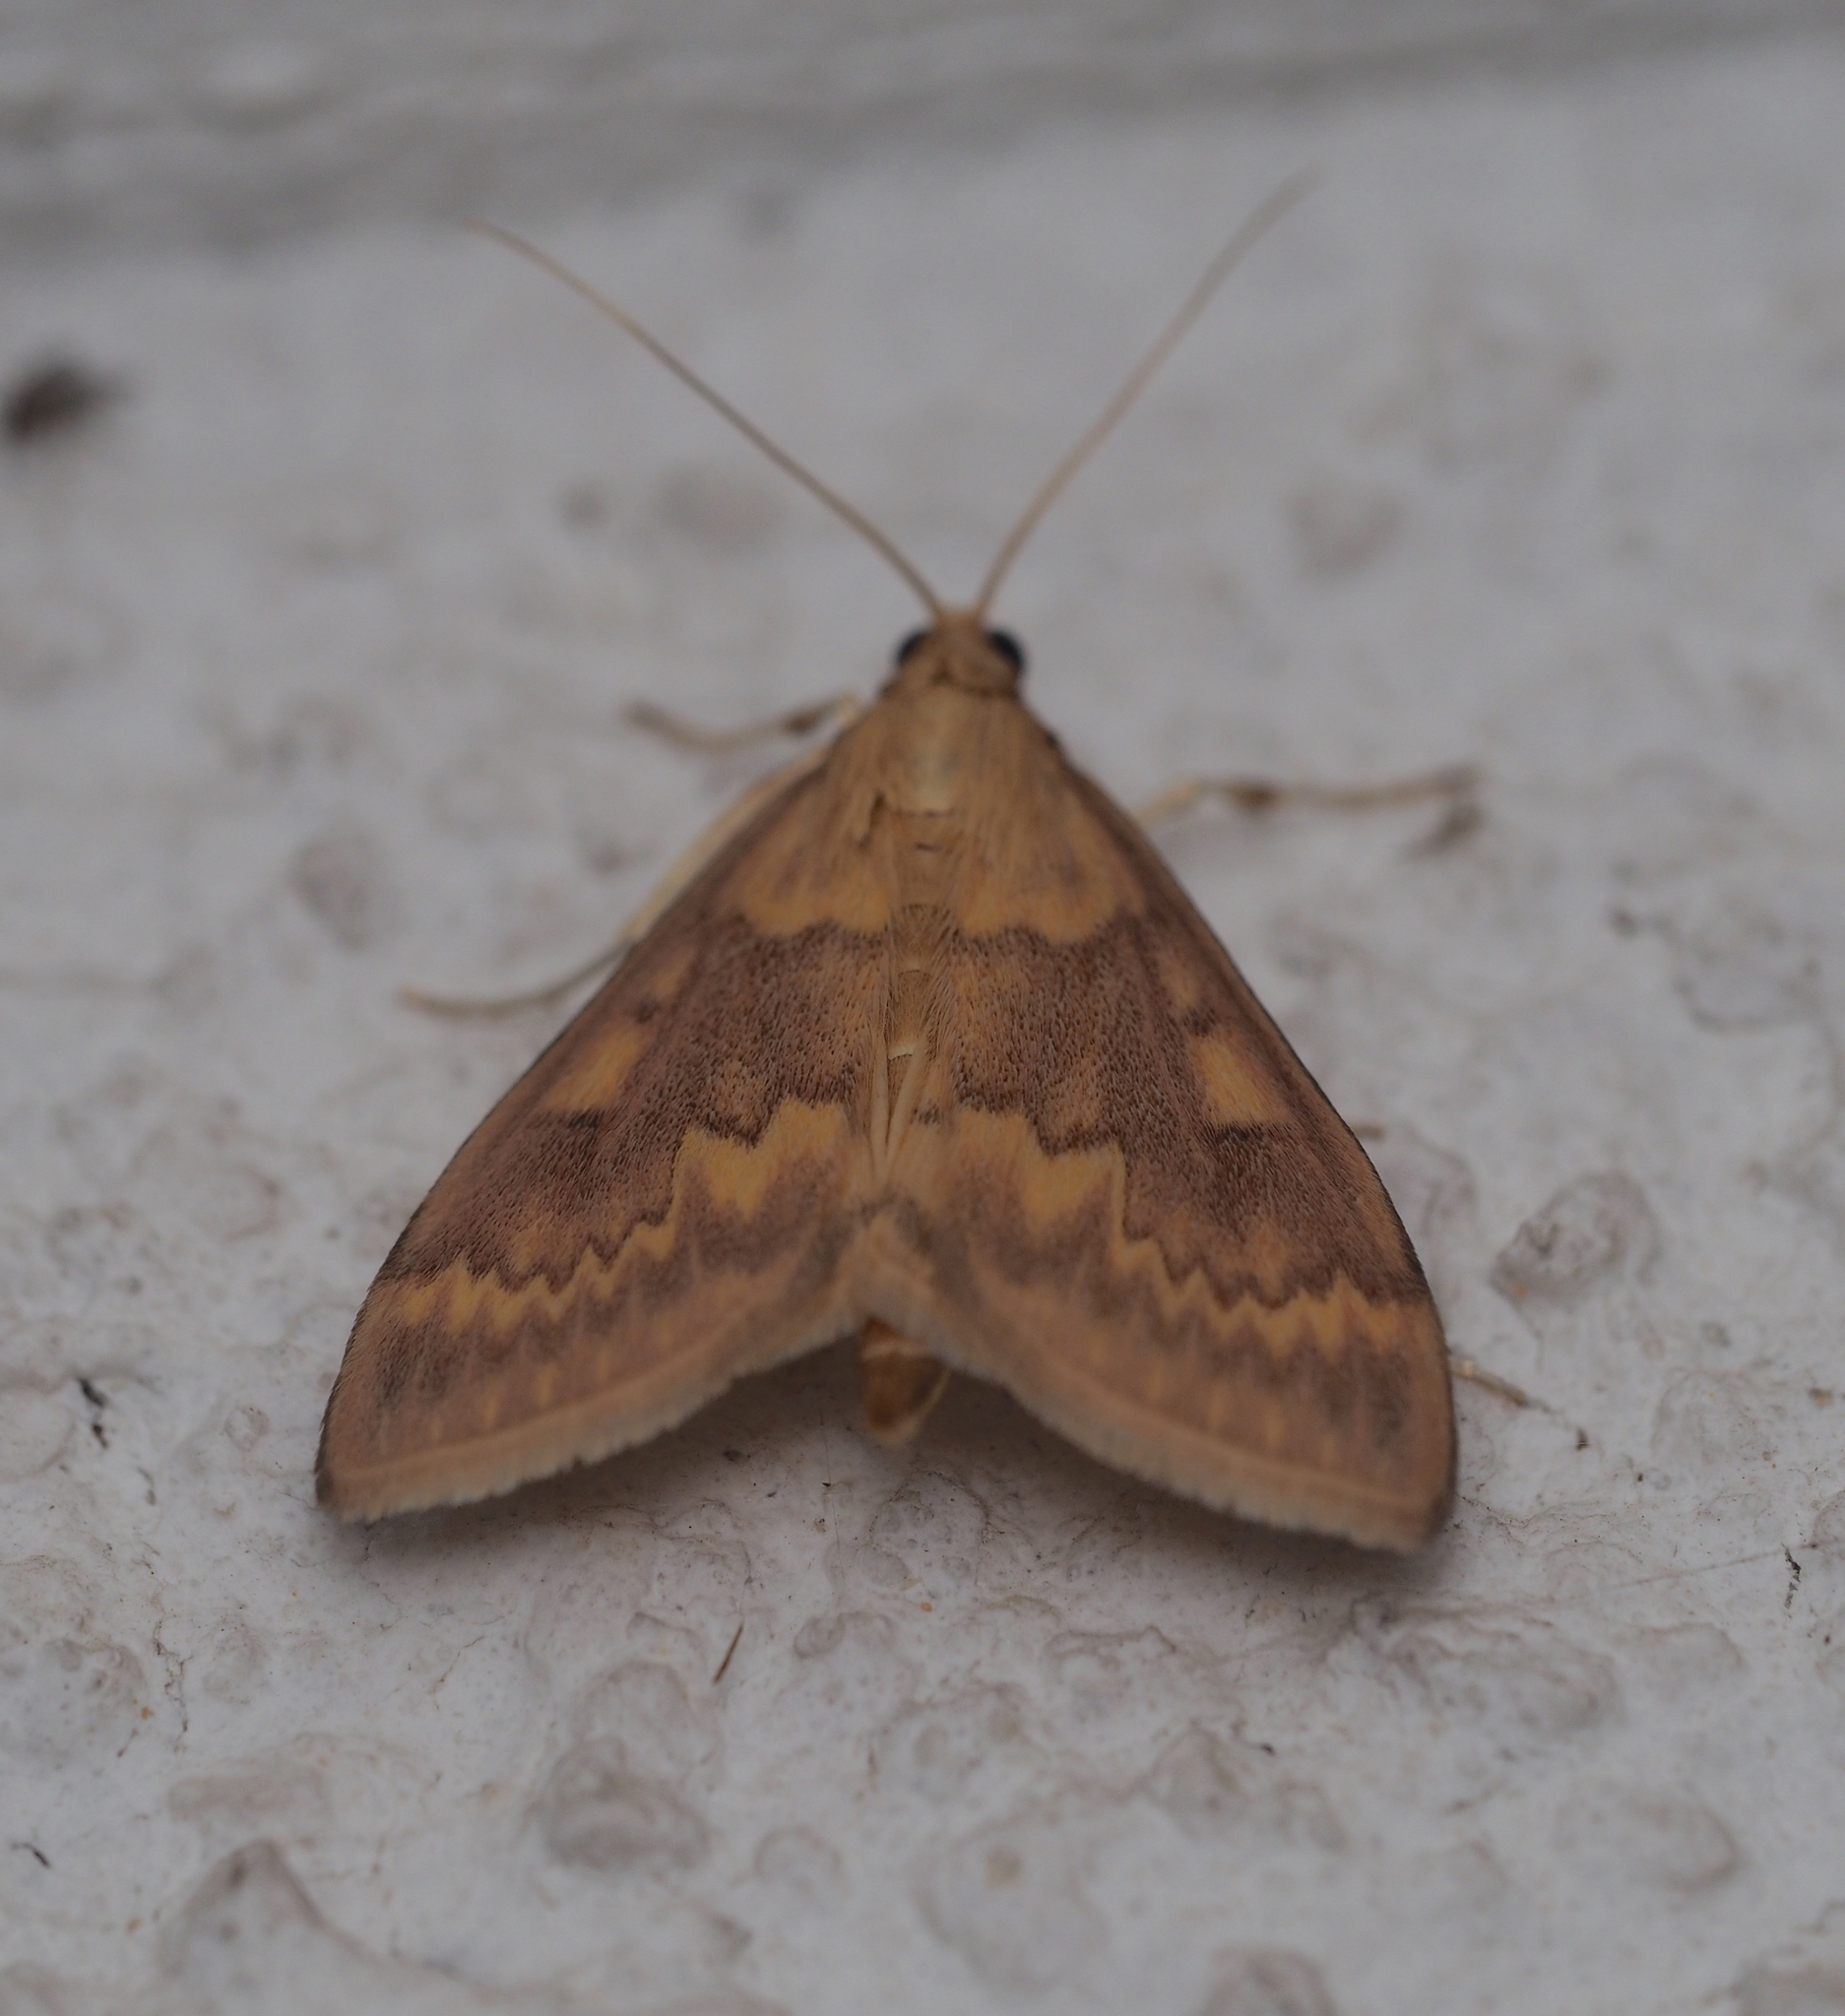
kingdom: Animalia
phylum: Arthropoda
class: Insecta
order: Lepidoptera
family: Crambidae
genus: Ostrinia
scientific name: Ostrinia nubilalis
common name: European corn borer
